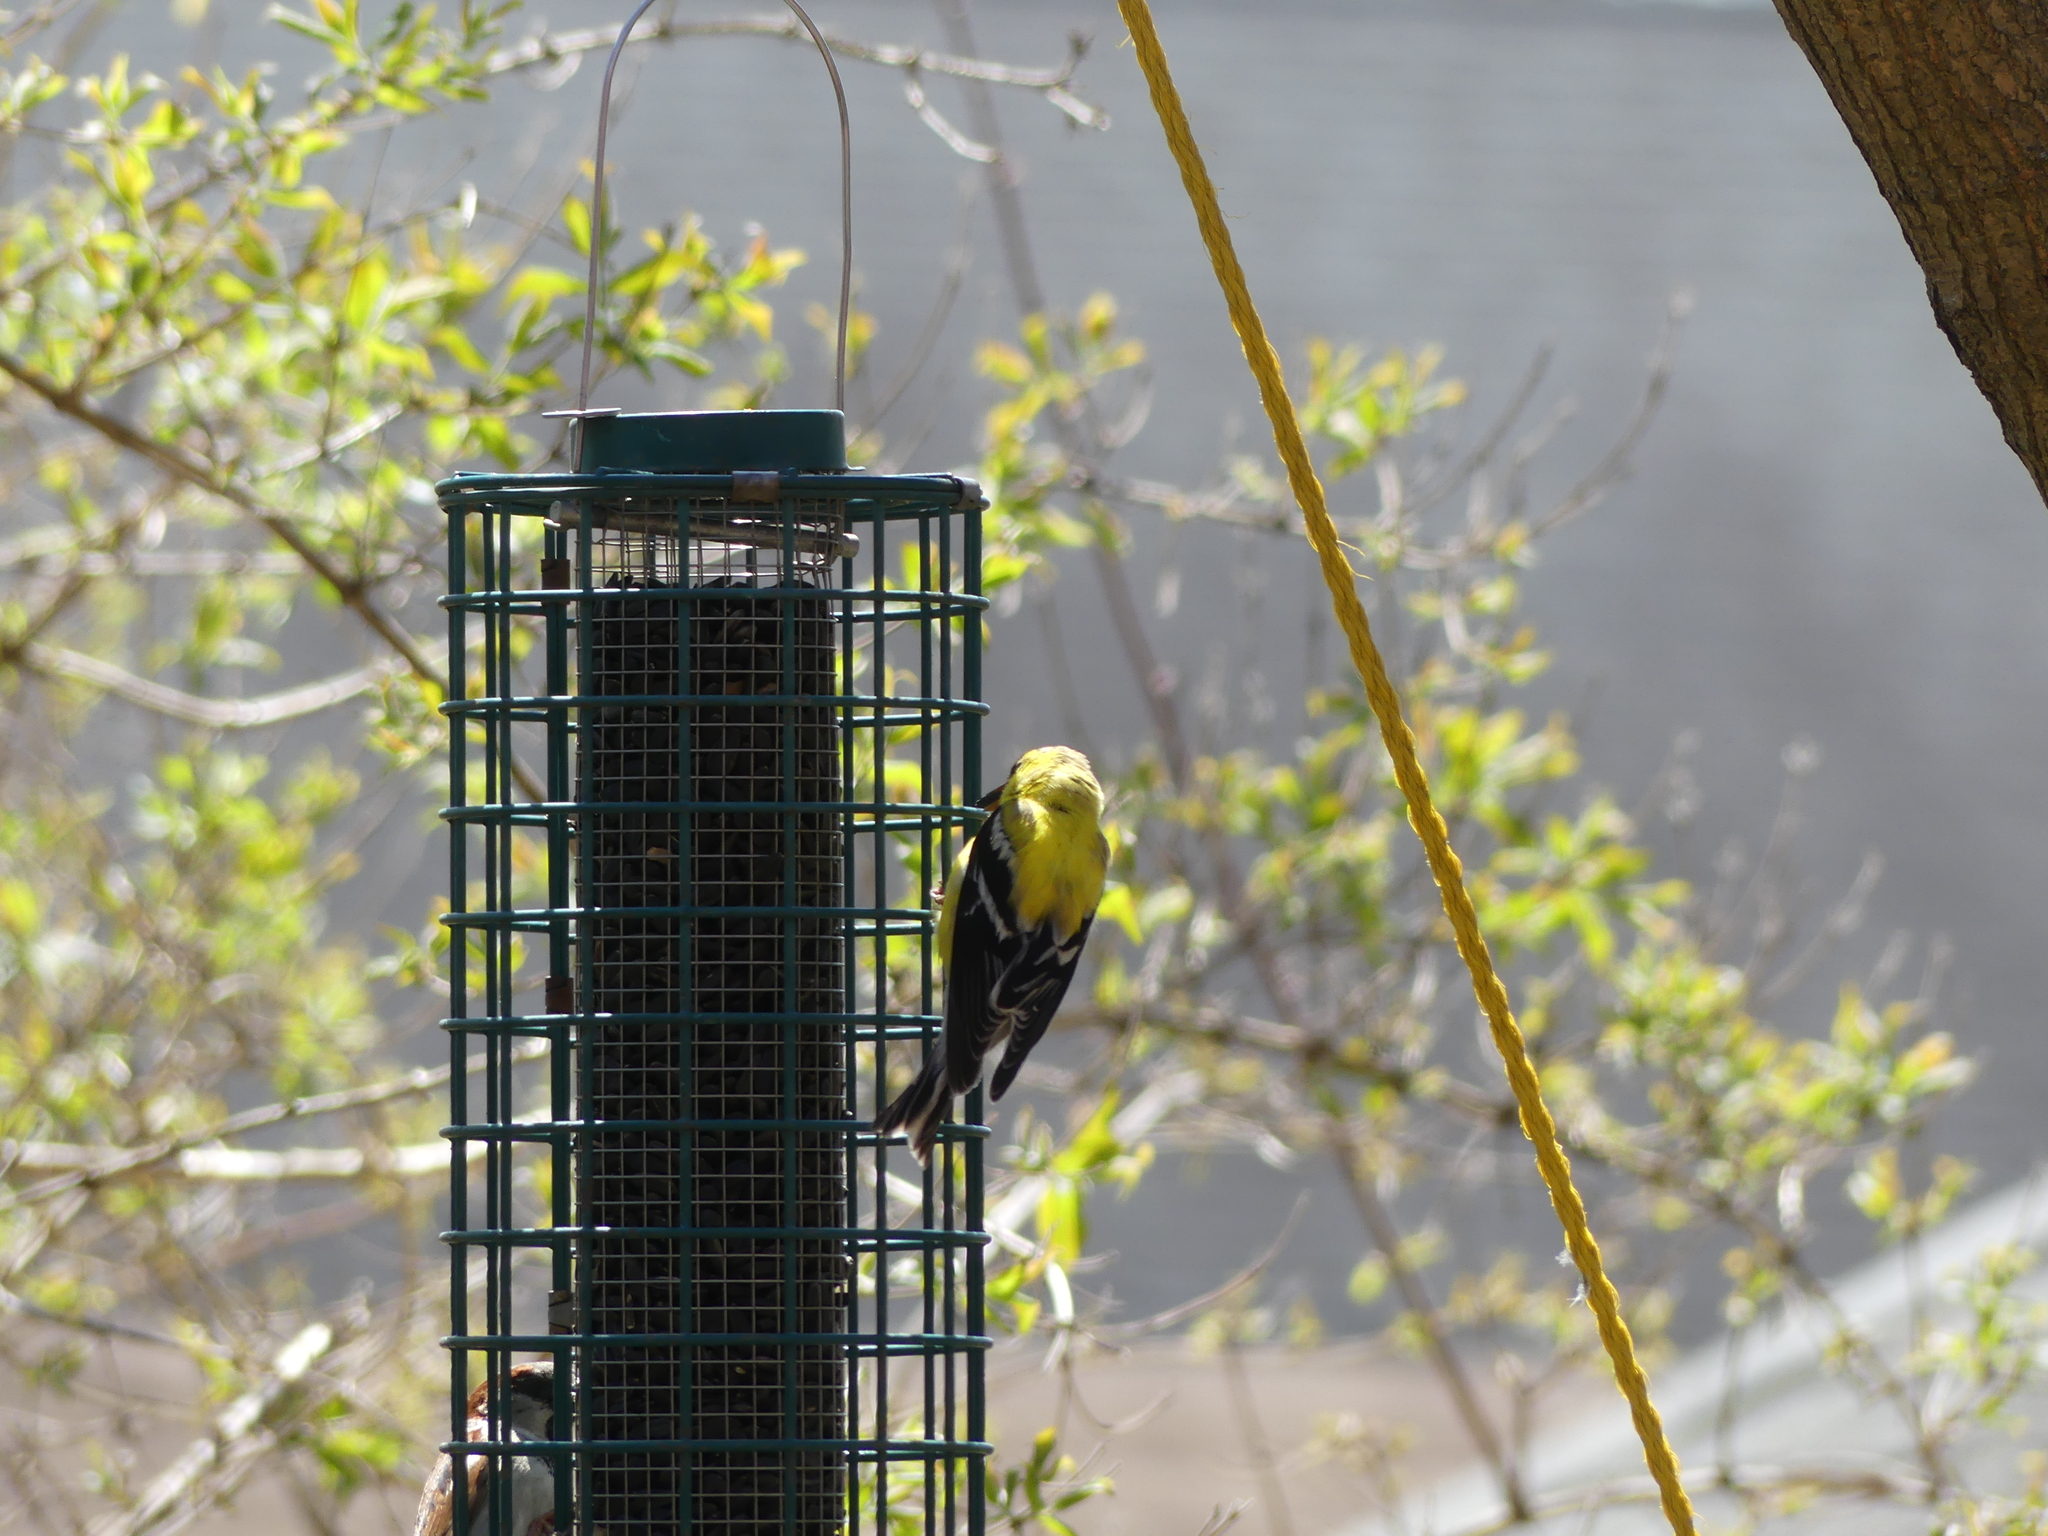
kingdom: Animalia
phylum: Chordata
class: Aves
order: Passeriformes
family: Fringillidae
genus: Spinus
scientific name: Spinus tristis
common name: American goldfinch
